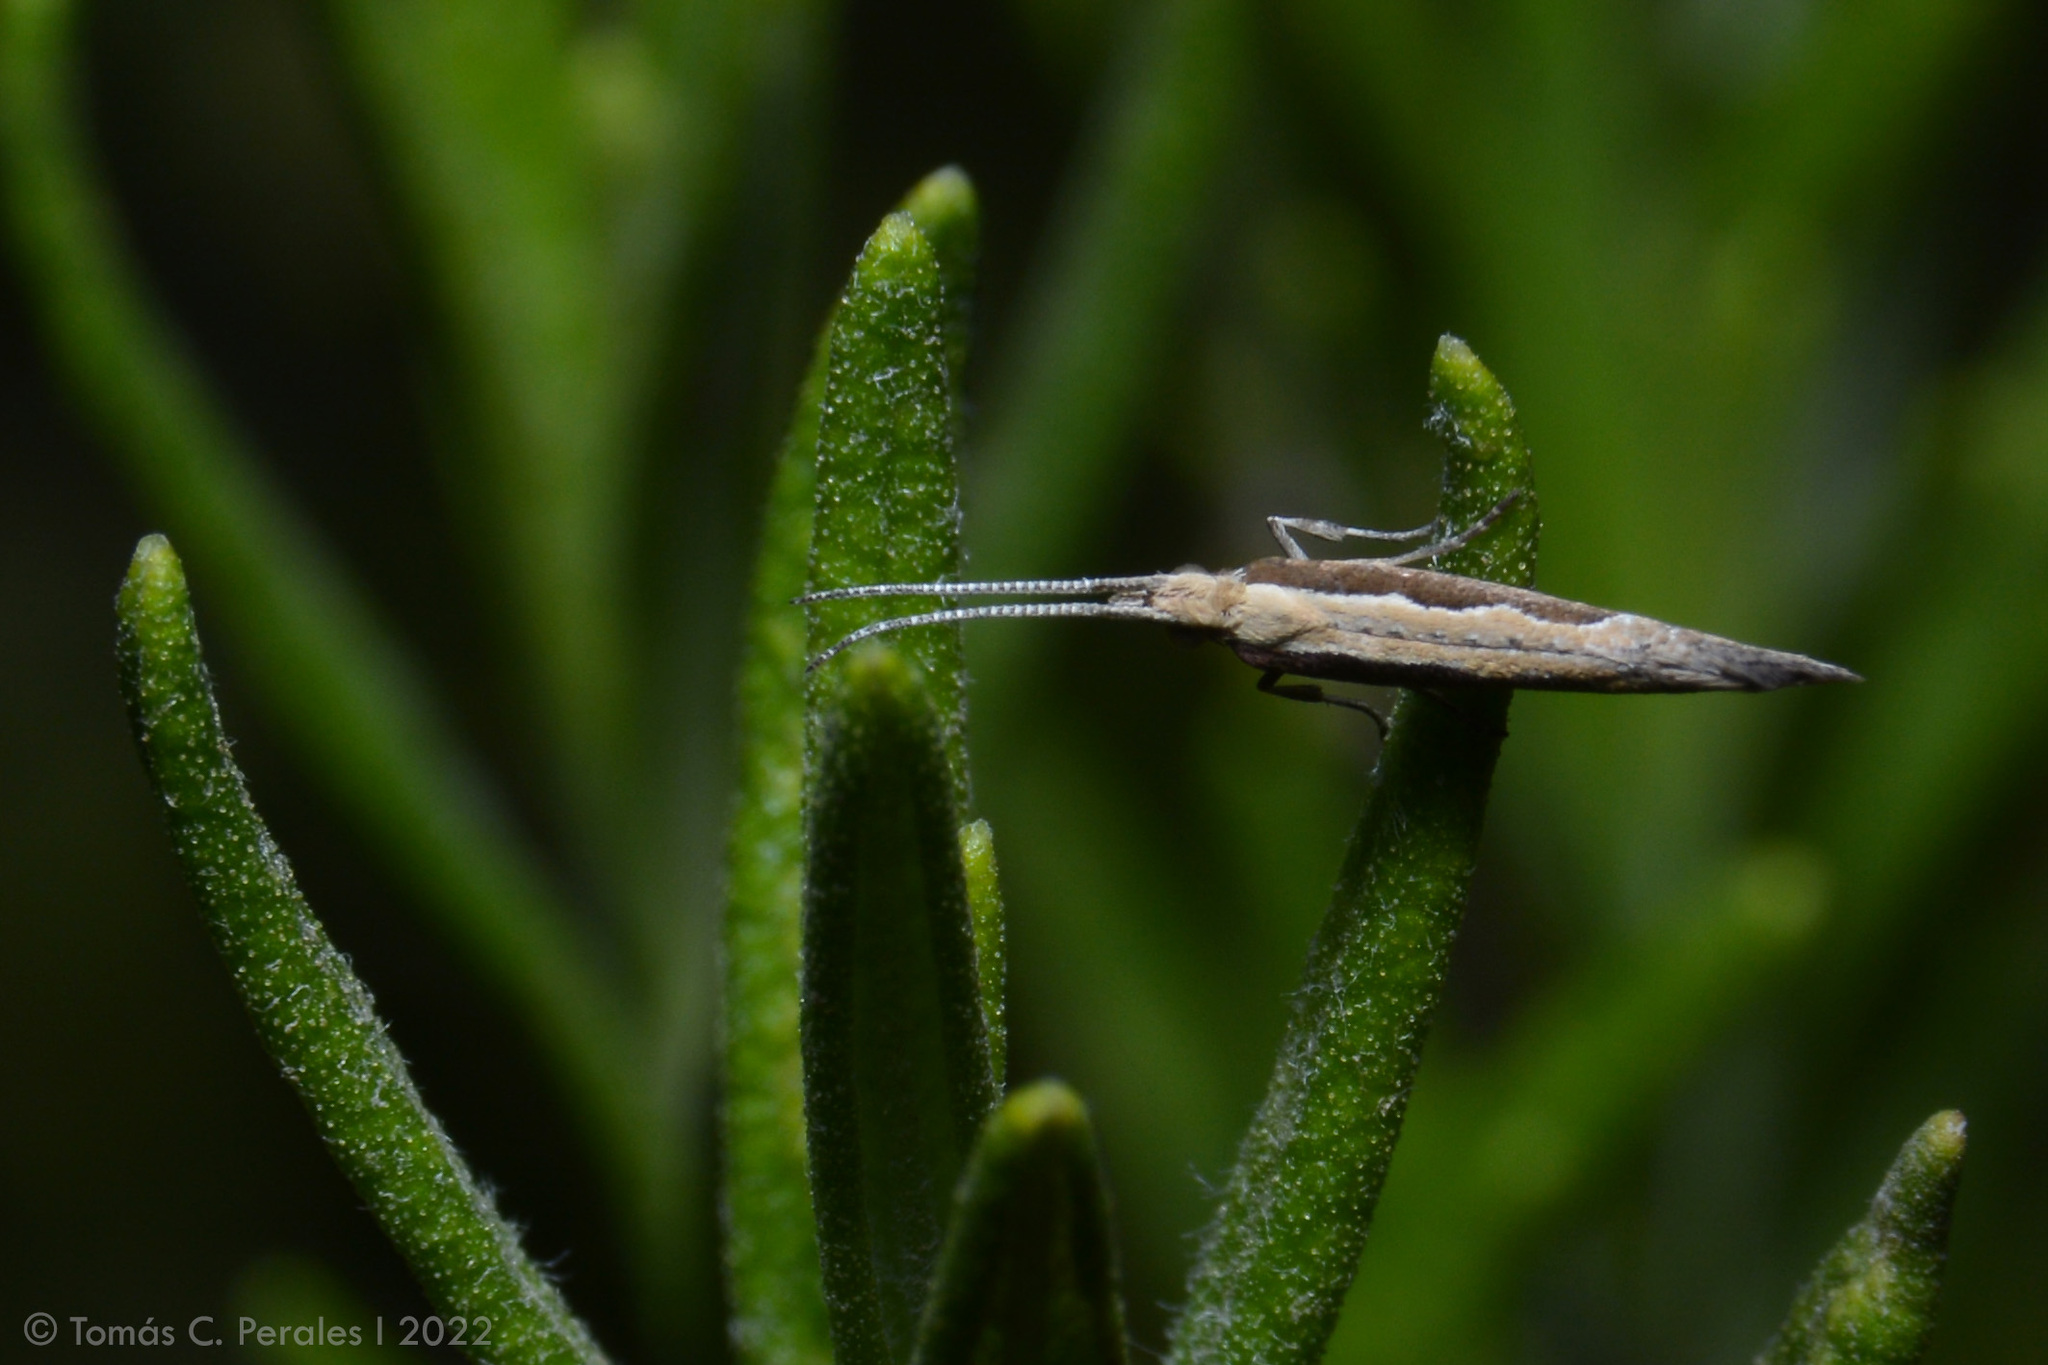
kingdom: Animalia
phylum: Arthropoda
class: Insecta
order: Lepidoptera
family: Plutellidae
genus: Plutella
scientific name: Plutella xylostella
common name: Diamond-back moth
